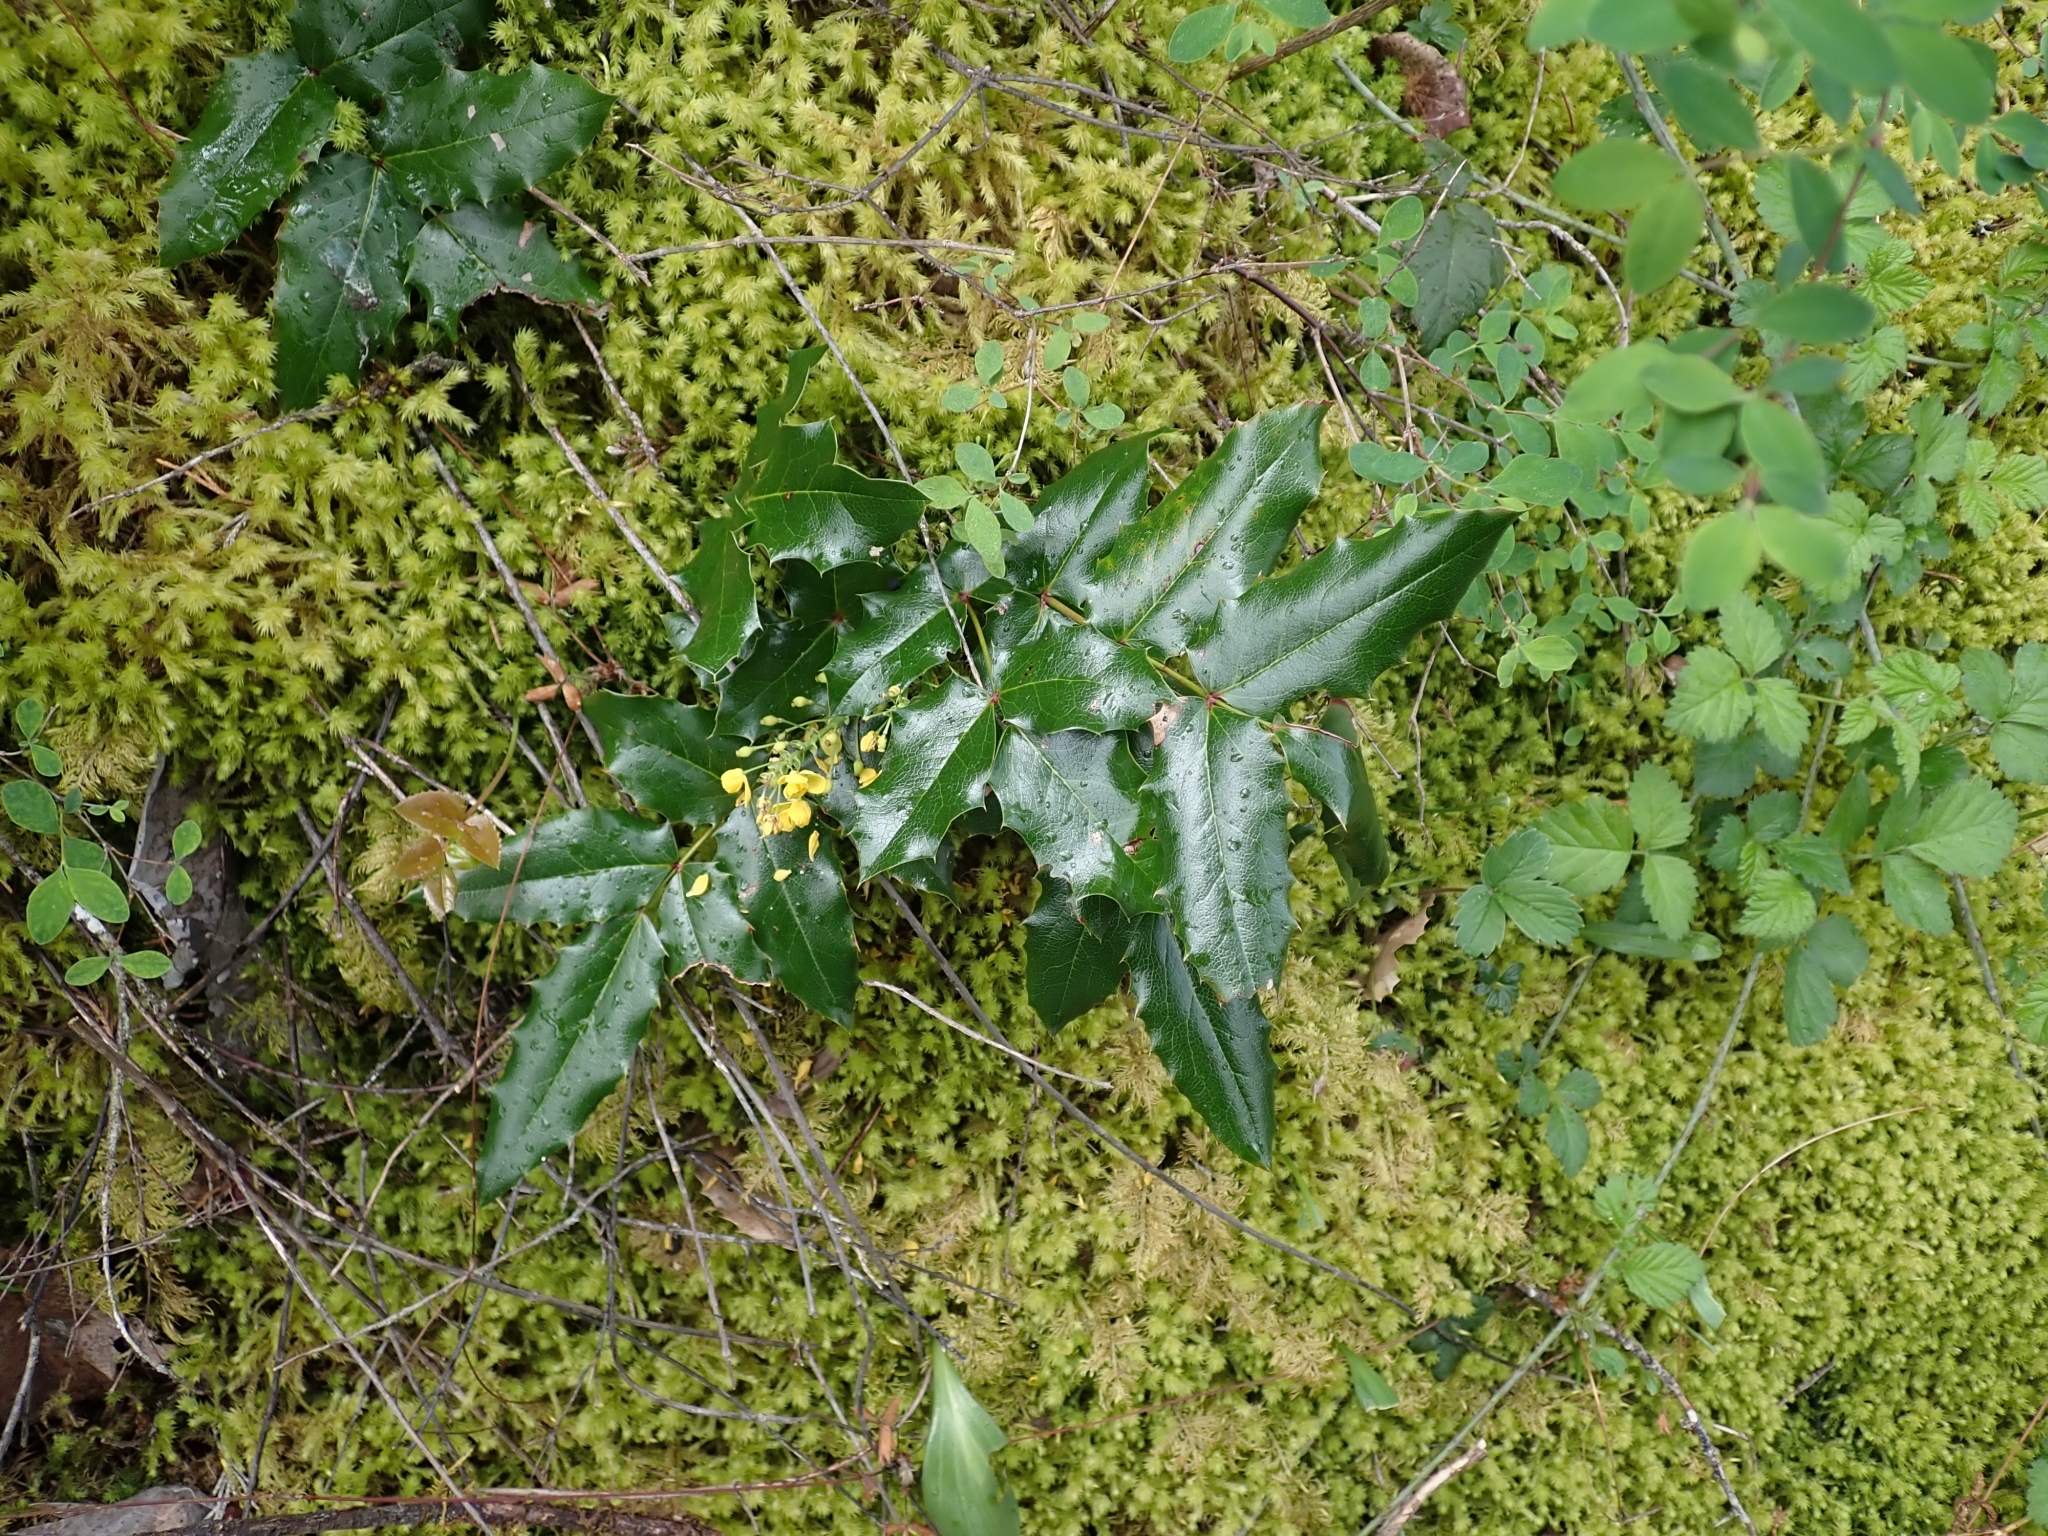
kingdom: Plantae
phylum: Tracheophyta
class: Magnoliopsida
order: Ranunculales
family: Berberidaceae
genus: Mahonia
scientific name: Mahonia aquifolium
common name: Oregon-grape
